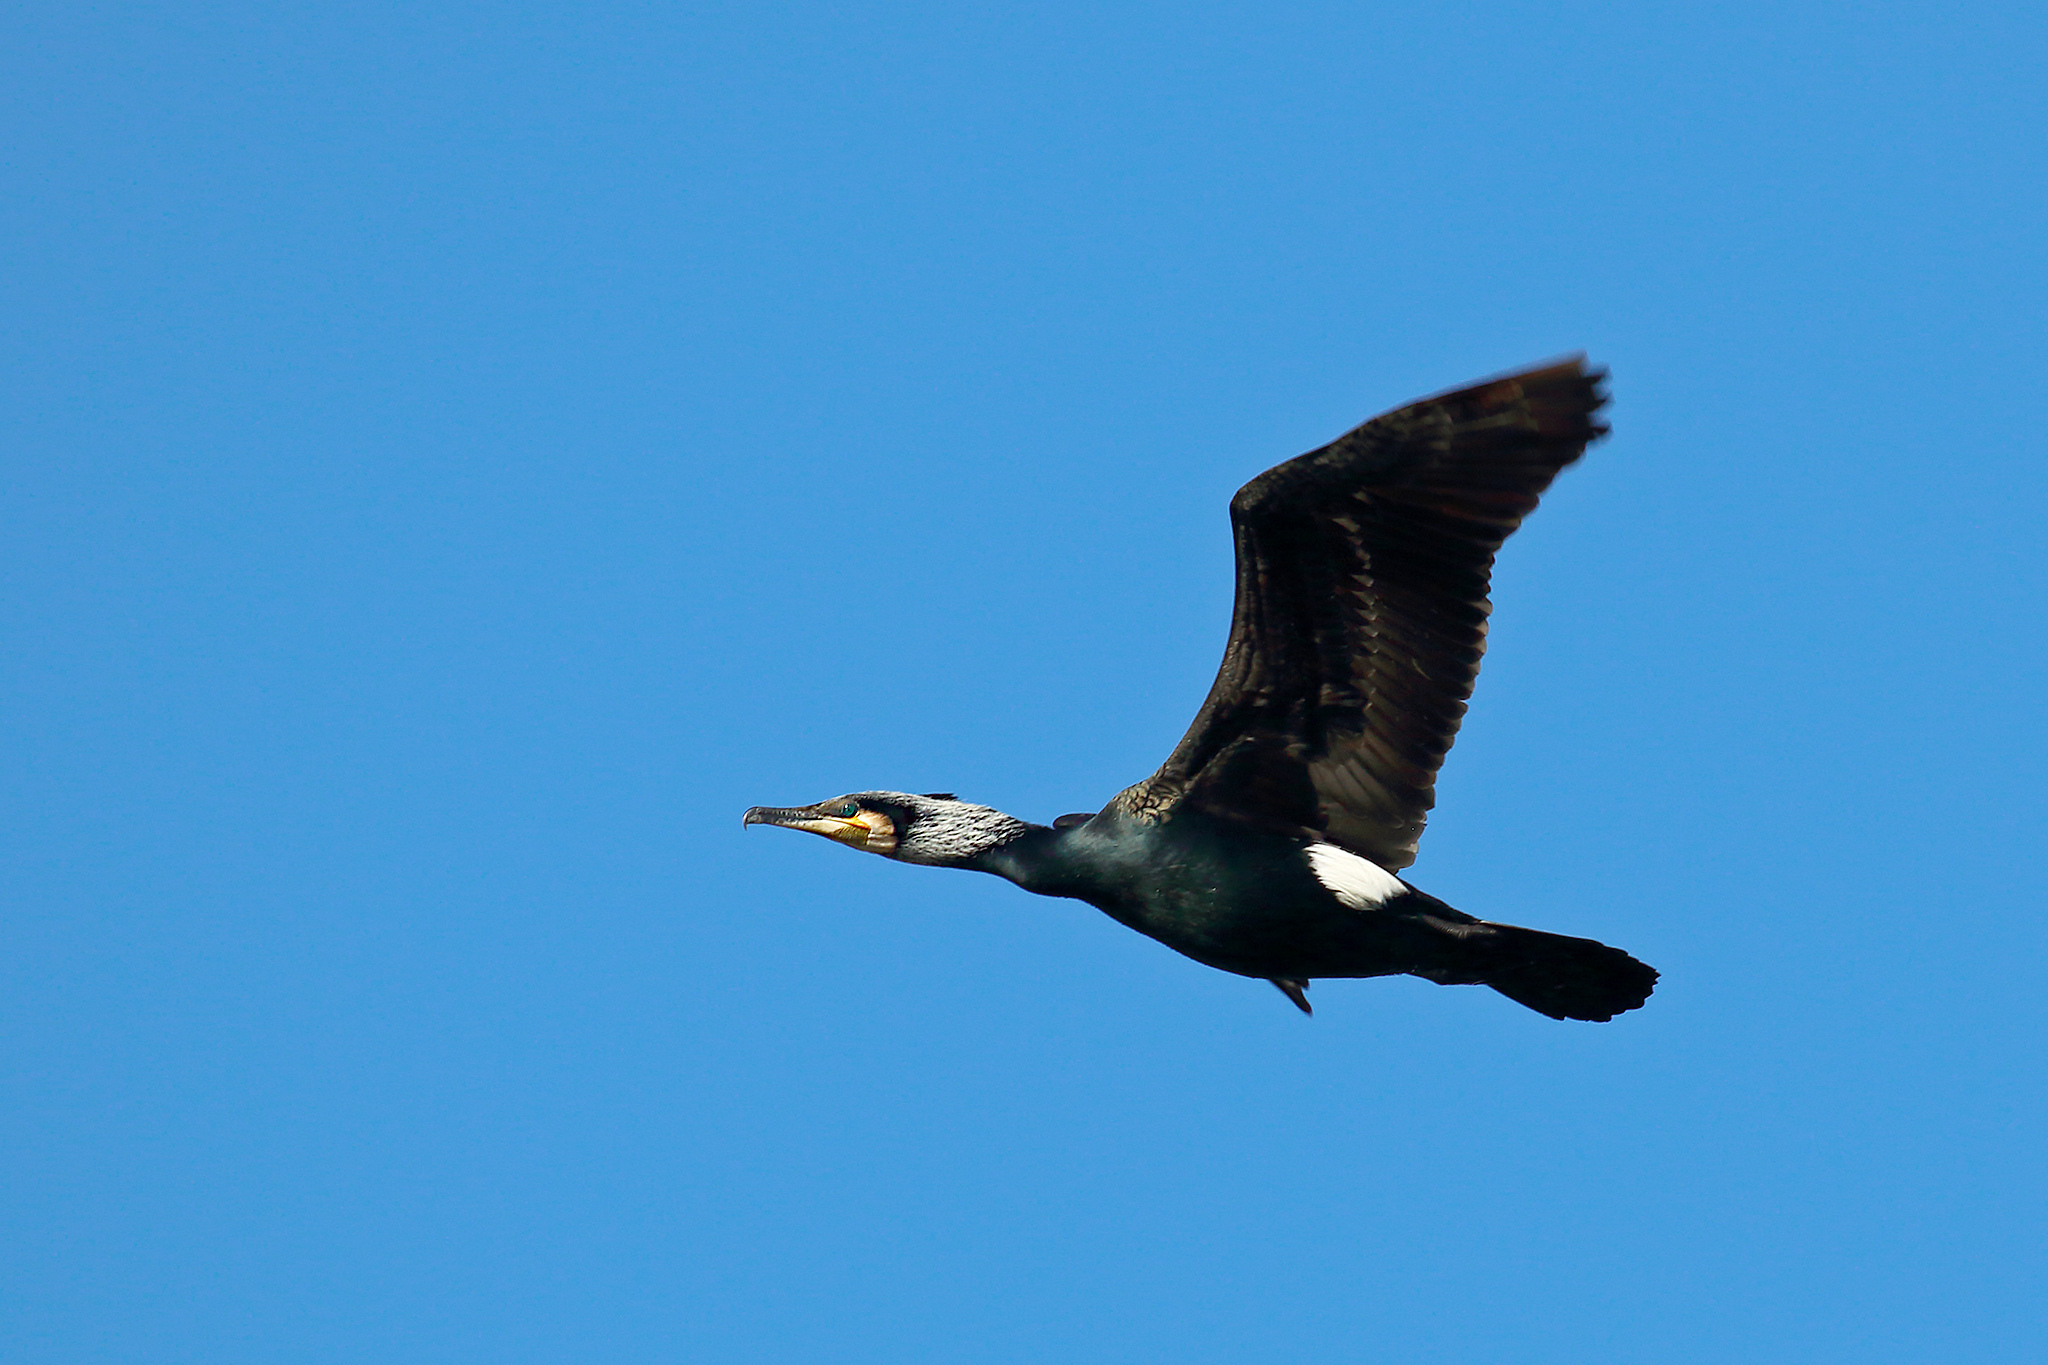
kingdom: Animalia
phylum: Chordata
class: Aves
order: Suliformes
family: Phalacrocoracidae
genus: Phalacrocorax
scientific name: Phalacrocorax carbo
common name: Great cormorant
